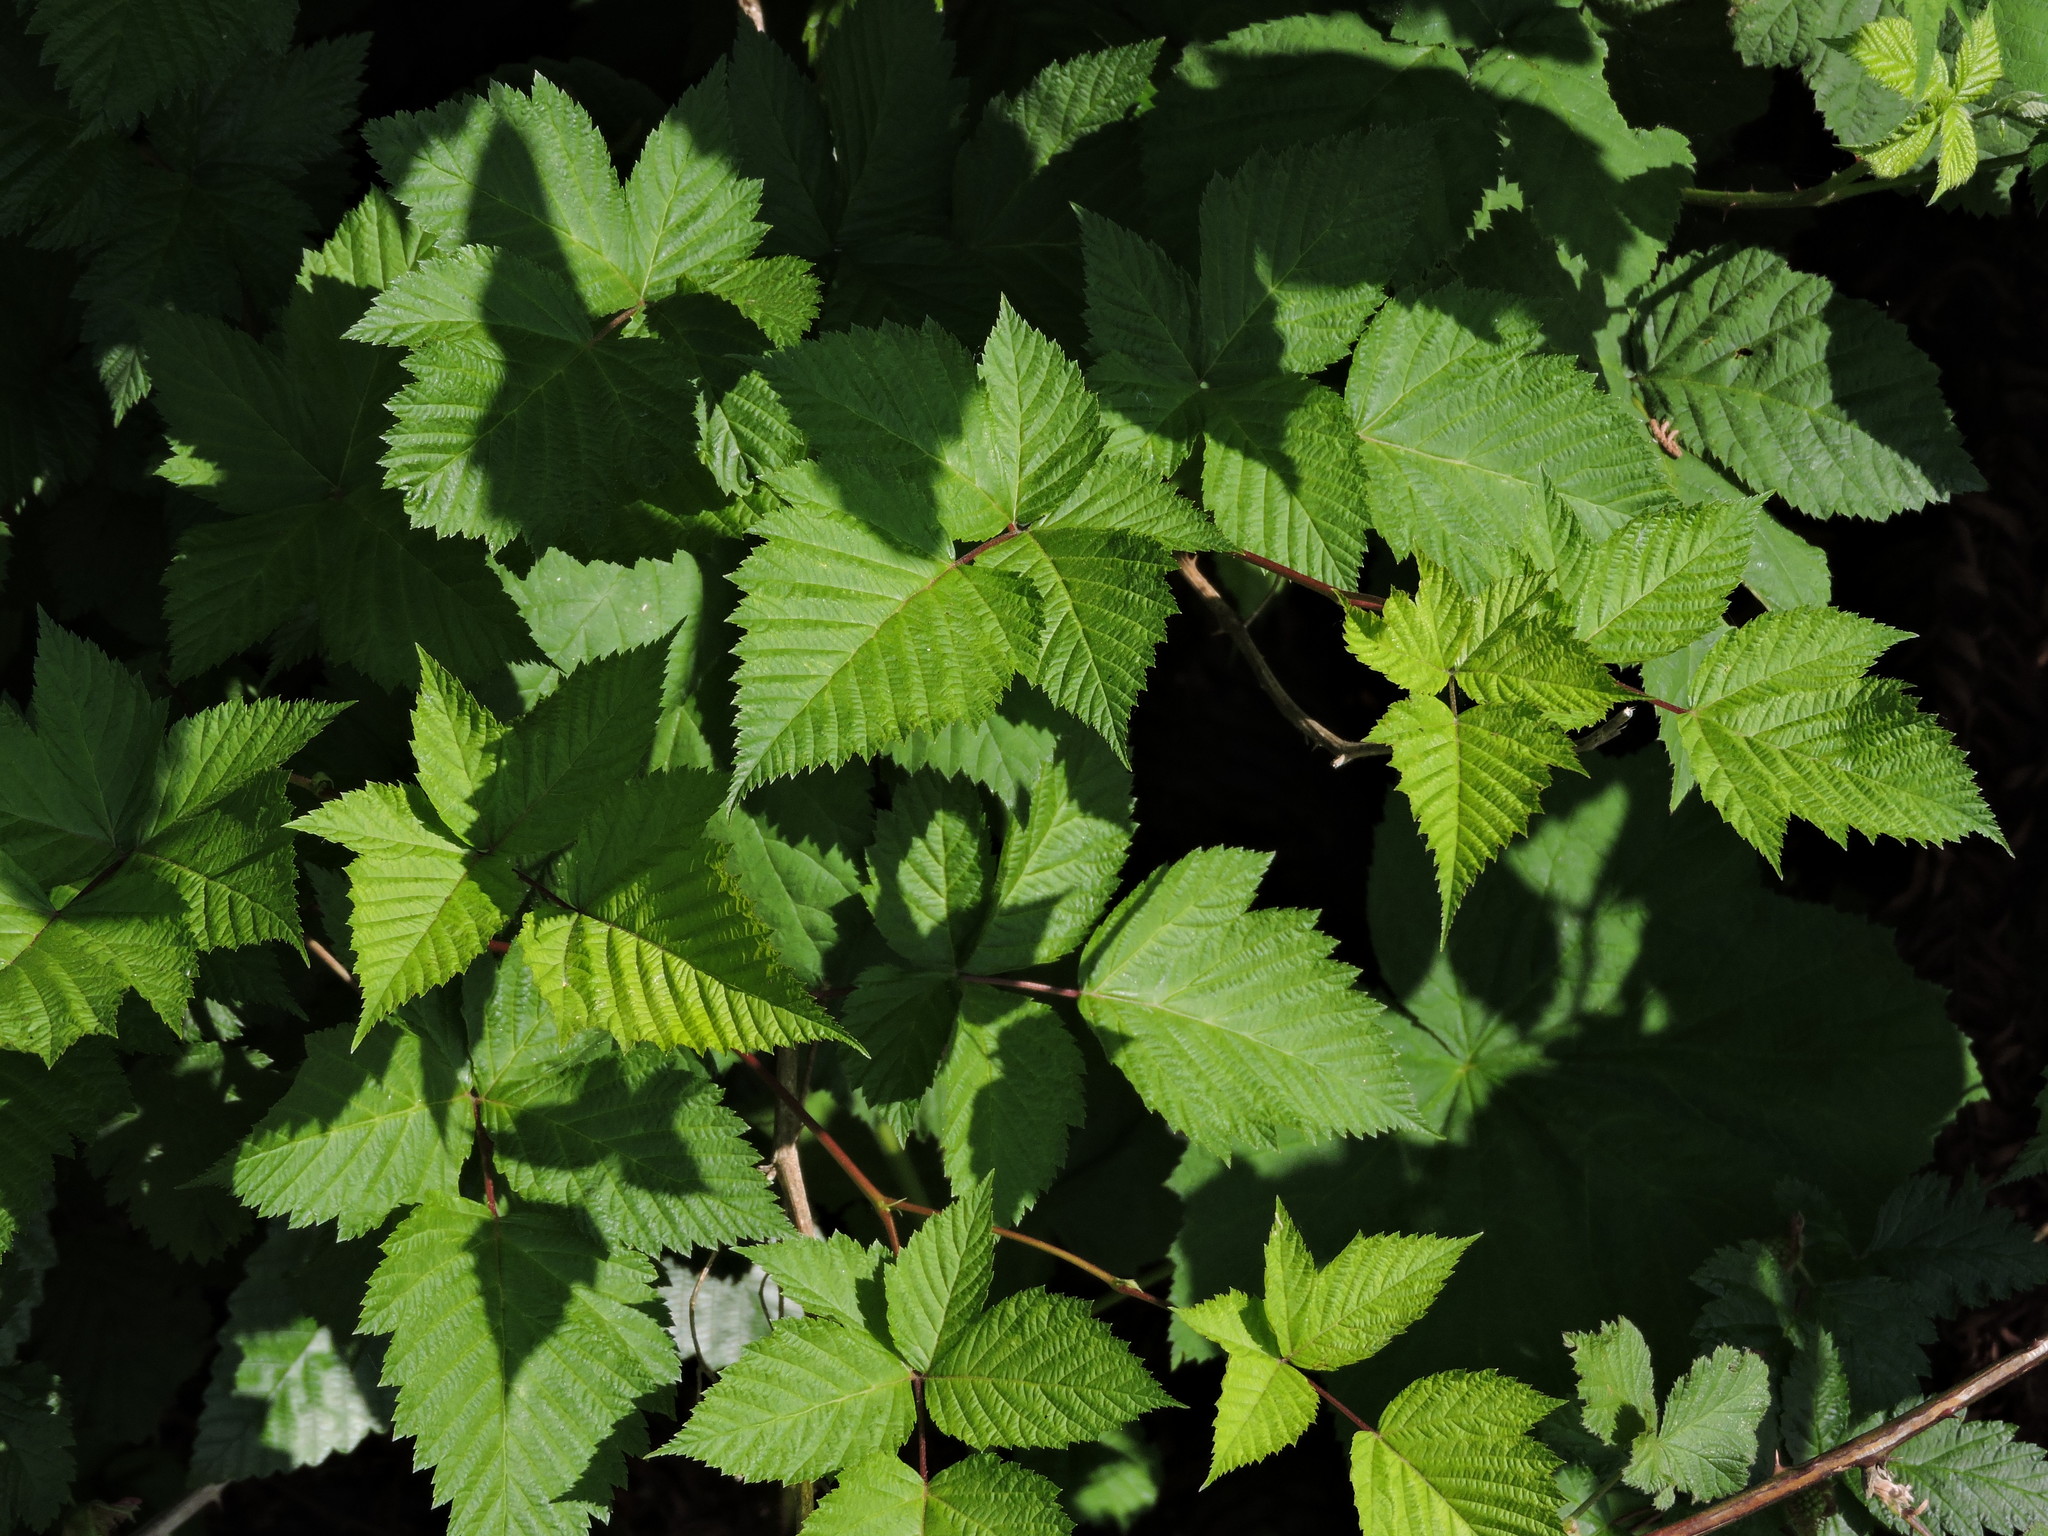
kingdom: Plantae
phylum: Tracheophyta
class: Magnoliopsida
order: Rosales
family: Rosaceae
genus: Rubus
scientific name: Rubus spectabilis
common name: Salmonberry
